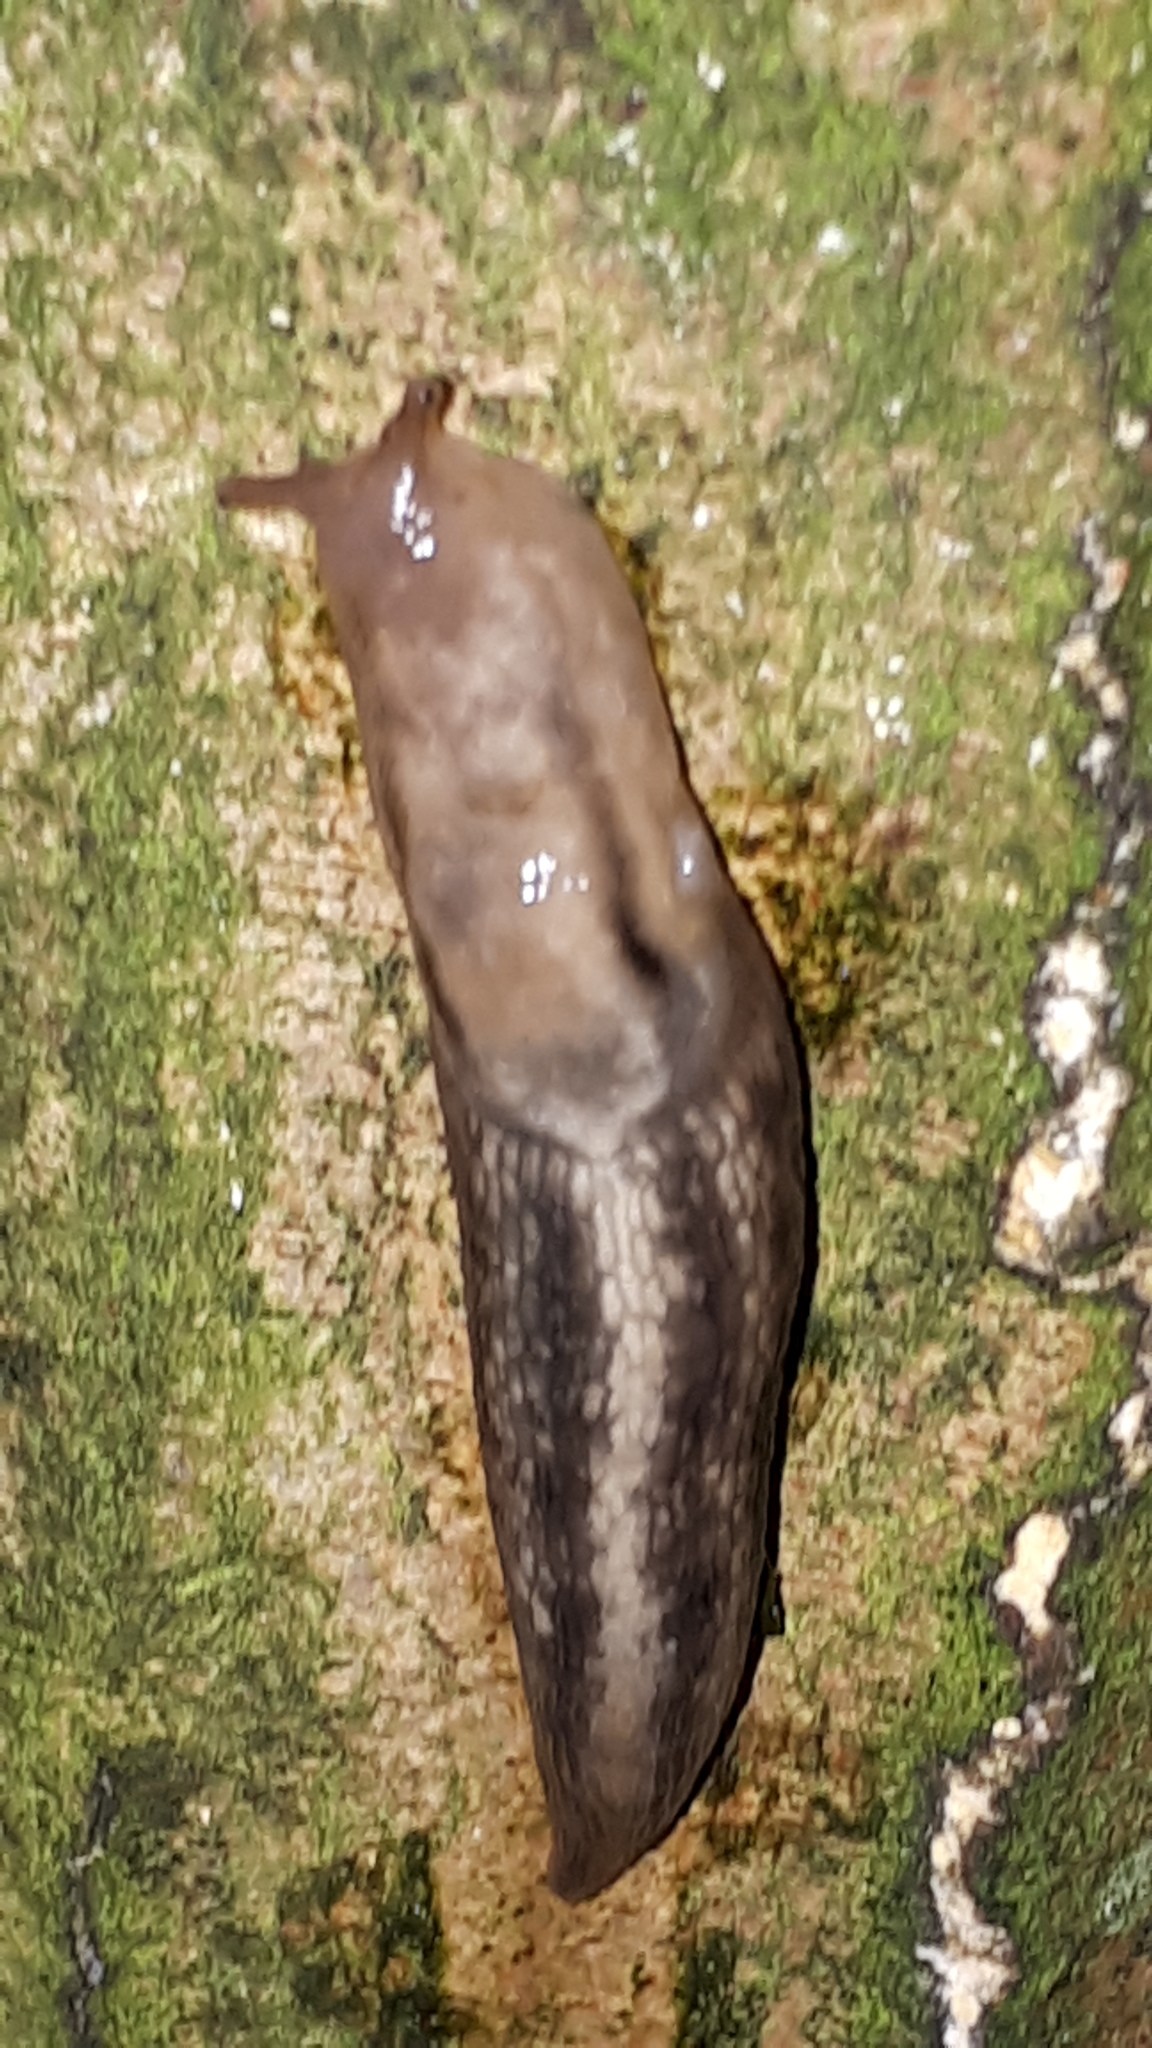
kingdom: Animalia
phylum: Mollusca
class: Gastropoda
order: Stylommatophora
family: Limacidae
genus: Lehmannia
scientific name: Lehmannia marginata
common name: Tree slug
